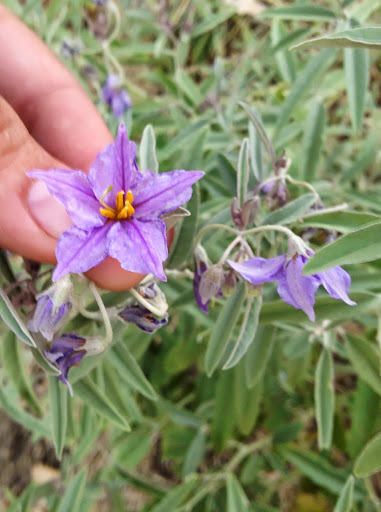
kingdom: Plantae
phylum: Tracheophyta
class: Magnoliopsida
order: Solanales
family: Solanaceae
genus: Solanum
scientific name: Solanum elaeagnifolium
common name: Silverleaf nightshade
